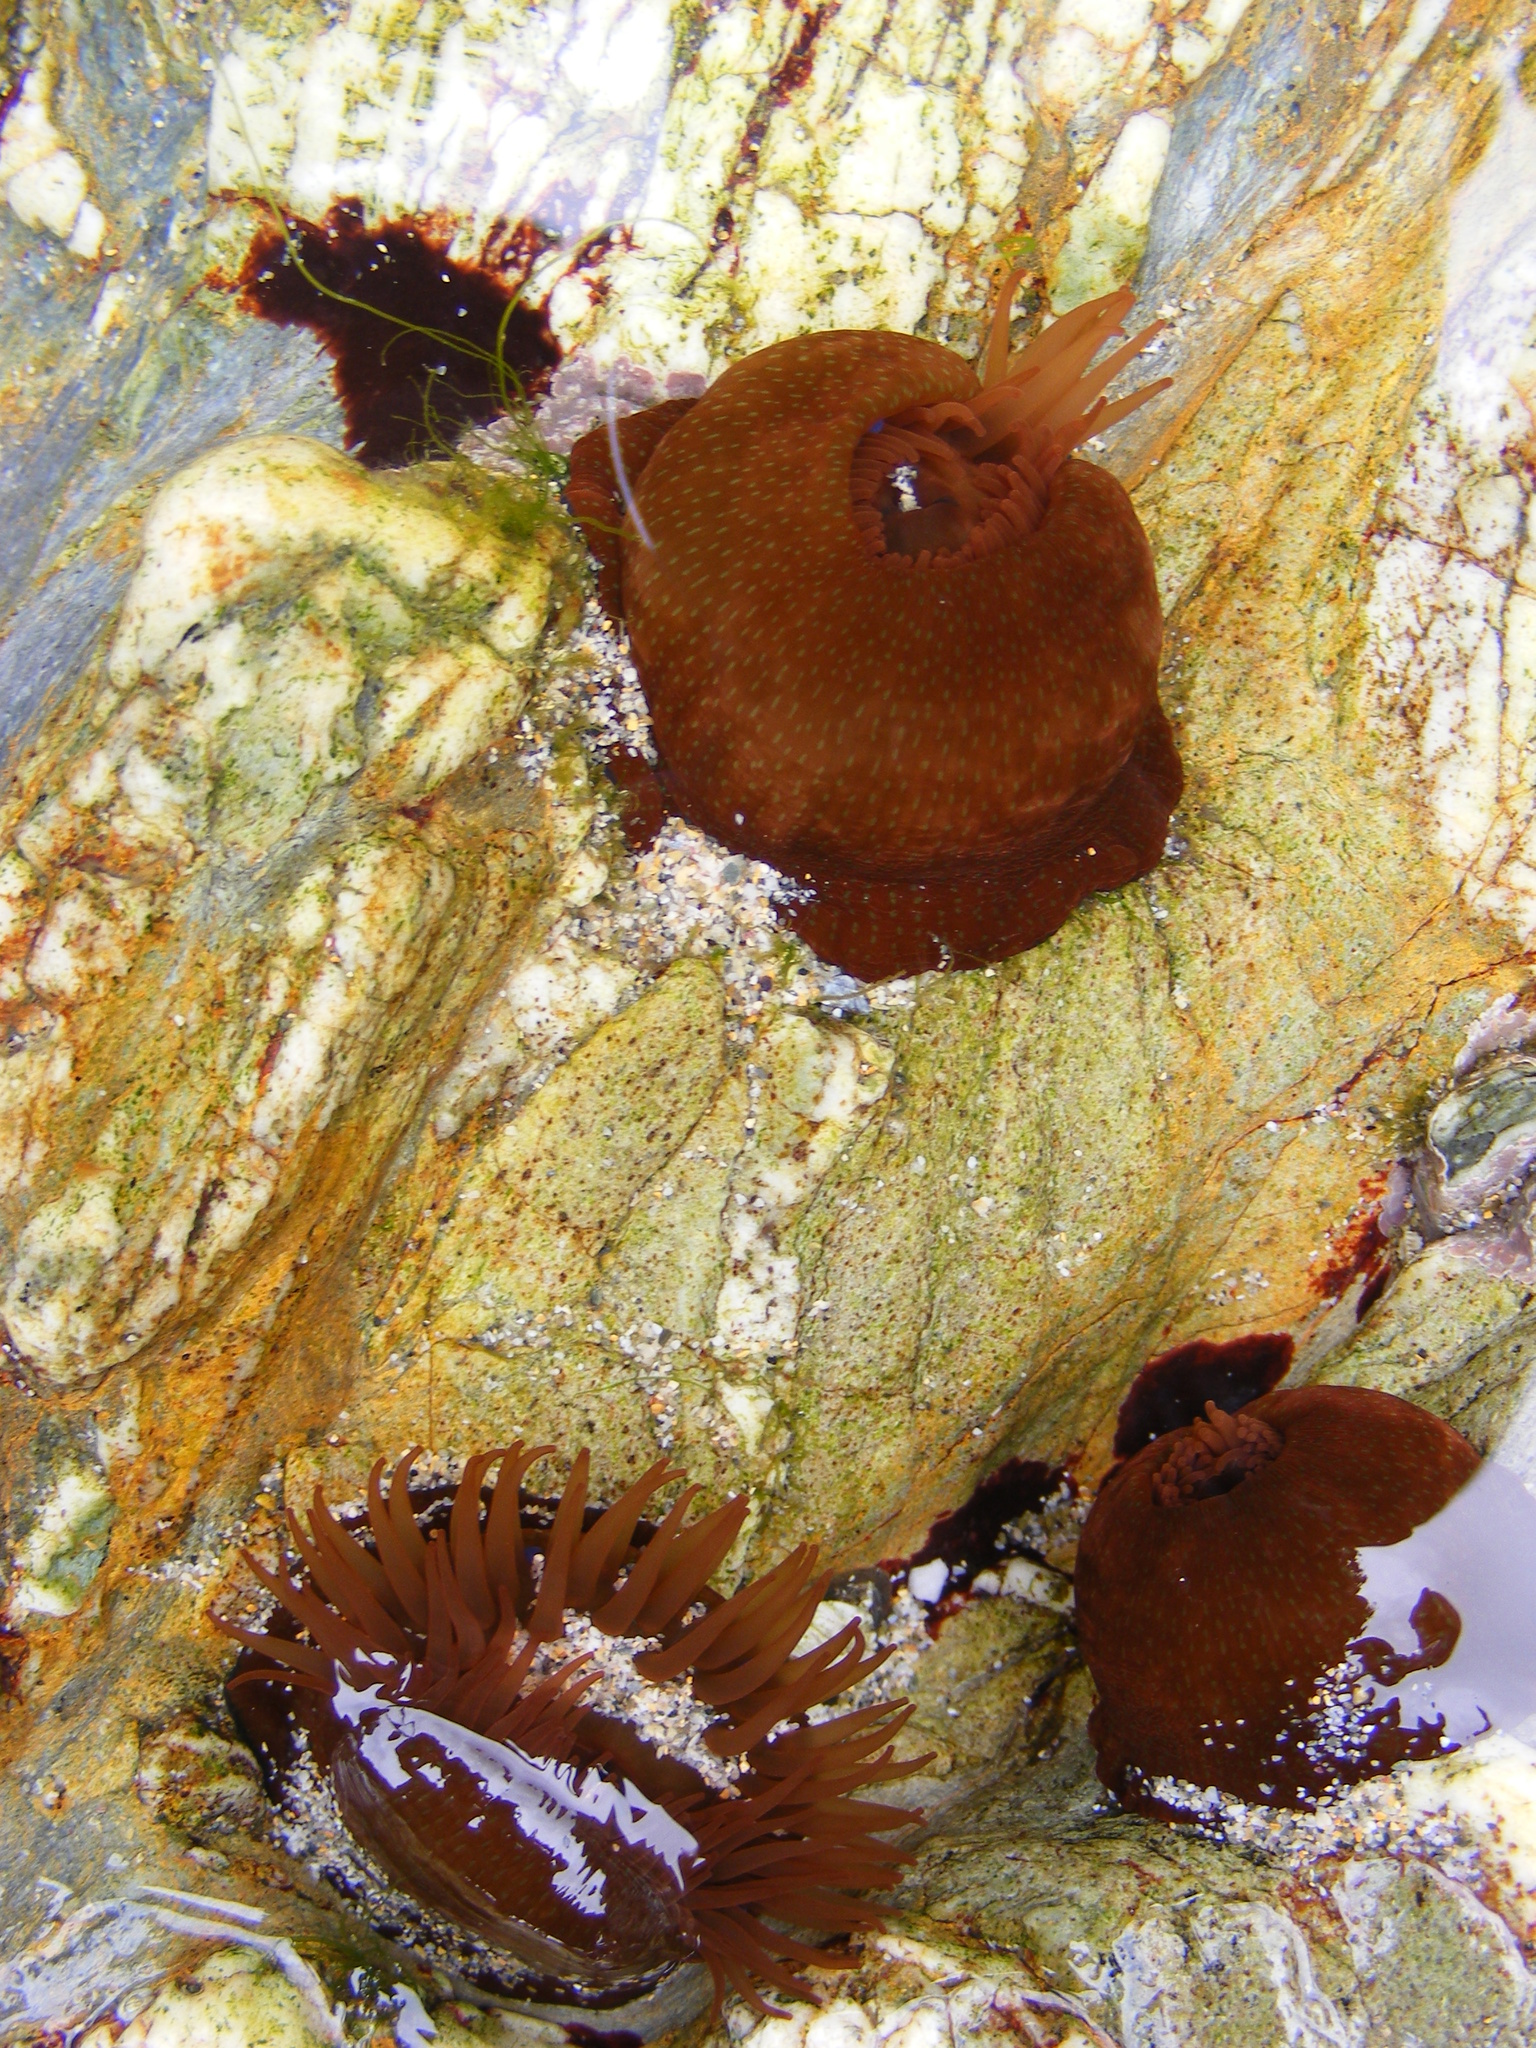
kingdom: Animalia
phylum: Cnidaria
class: Anthozoa
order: Actiniaria
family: Actiniidae
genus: Actinia
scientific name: Actinia fragacea
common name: Strawberry anemone
